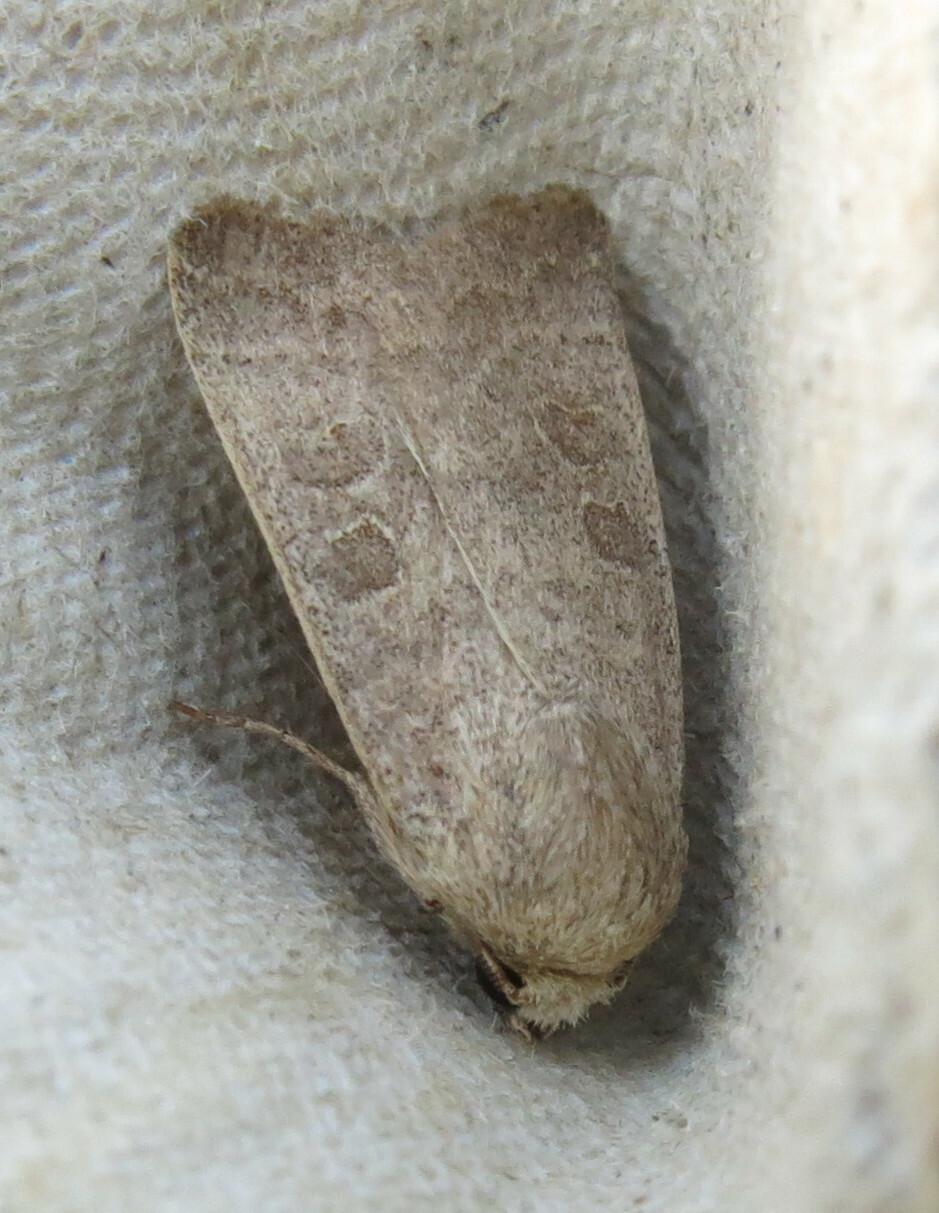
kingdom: Animalia
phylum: Arthropoda
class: Insecta
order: Lepidoptera
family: Noctuidae
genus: Hoplodrina
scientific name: Hoplodrina ambigua
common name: Vine's rustic
